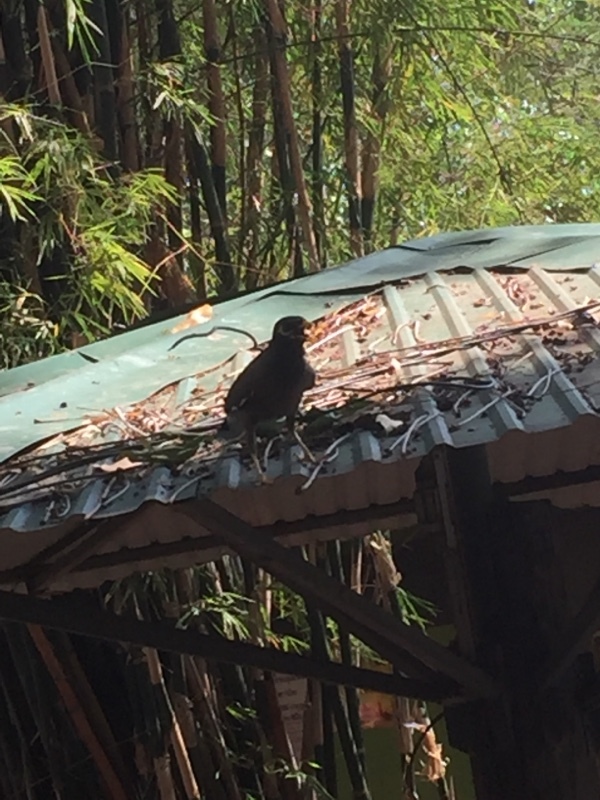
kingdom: Animalia
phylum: Chordata
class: Aves
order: Passeriformes
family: Sturnidae
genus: Acridotheres
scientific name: Acridotheres tristis
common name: Common myna
